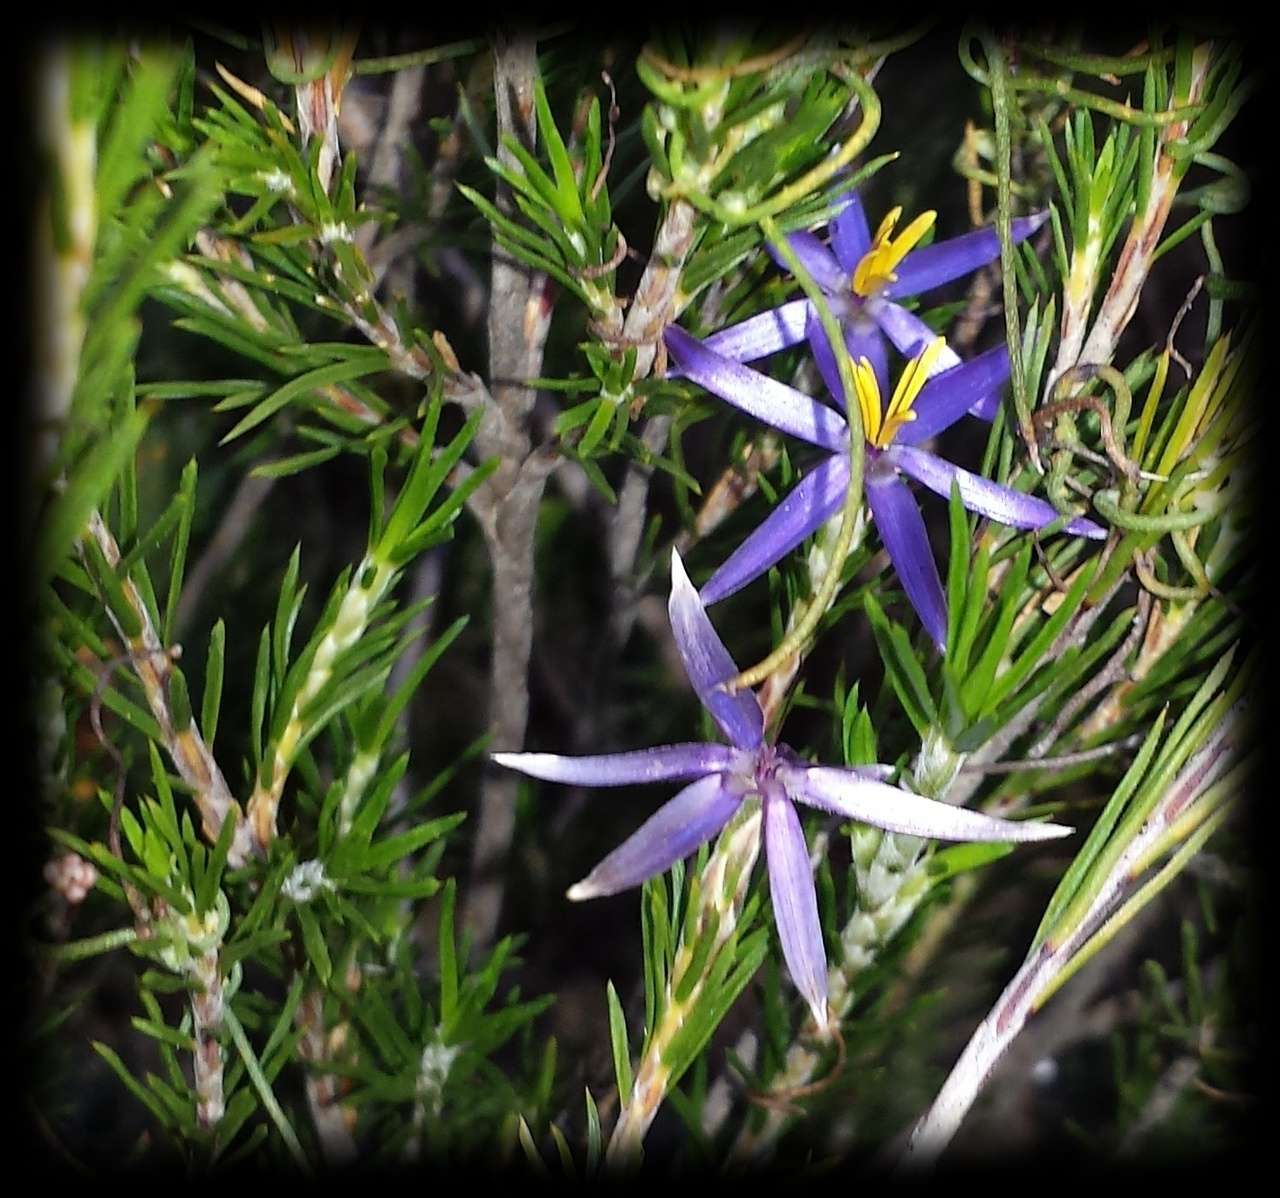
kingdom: Plantae
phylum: Tracheophyta
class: Liliopsida
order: Arecales
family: Dasypogonaceae
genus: Calectasia
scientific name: Calectasia intermedia
